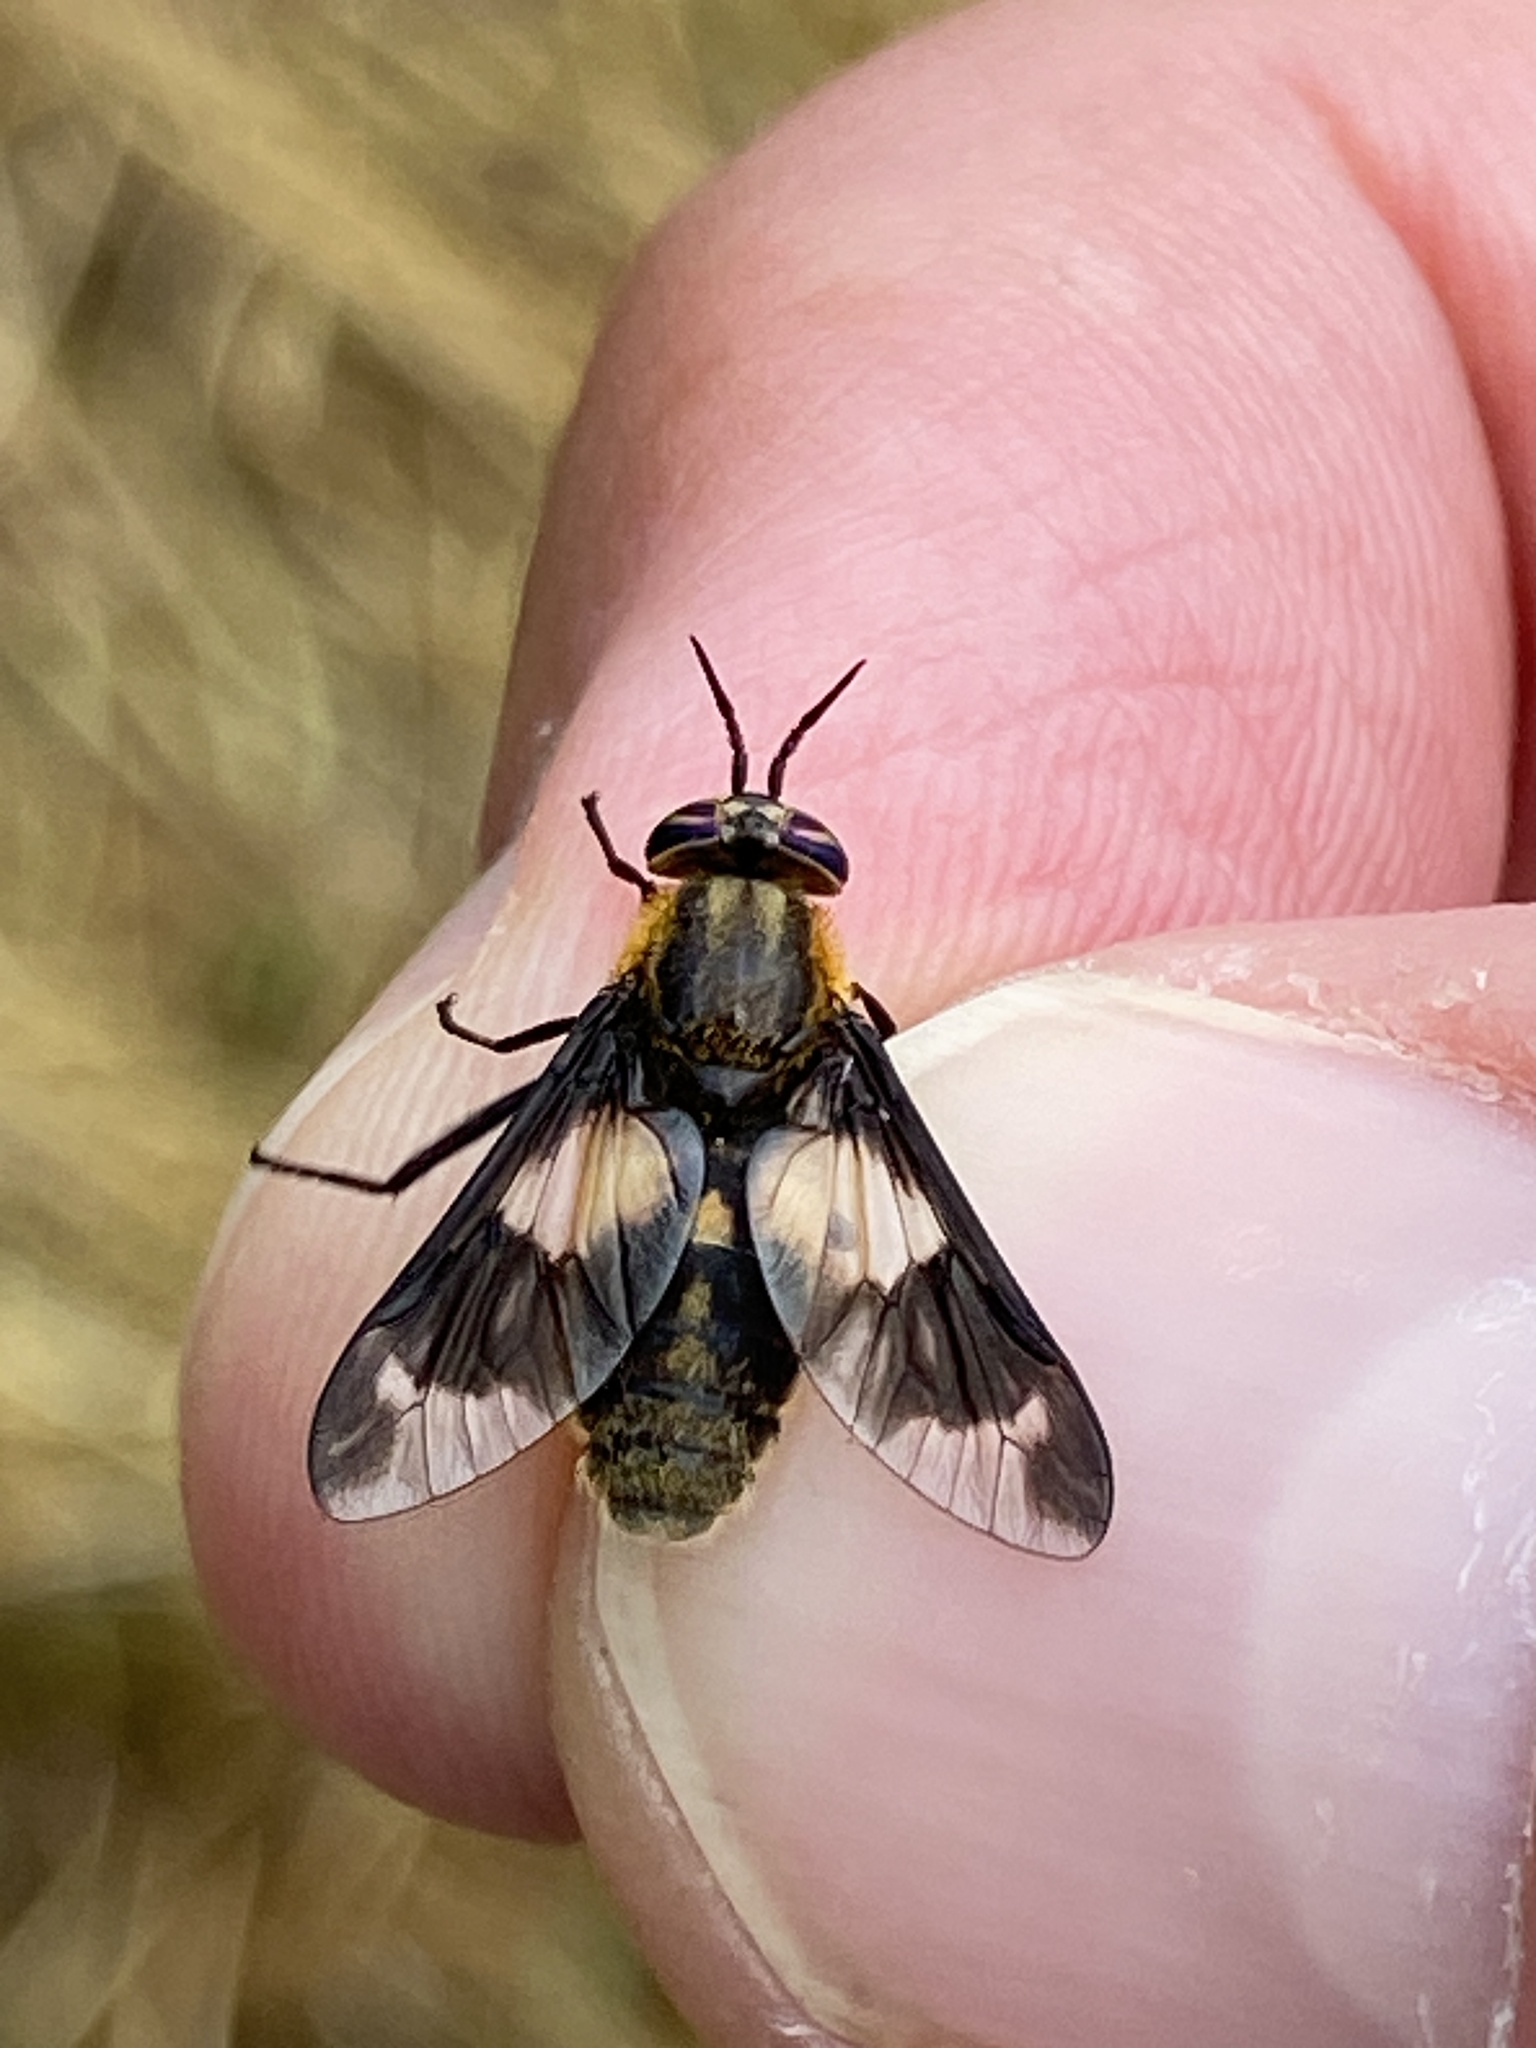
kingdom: Animalia
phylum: Arthropoda
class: Insecta
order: Diptera
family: Tabanidae
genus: Chrysops
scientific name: Chrysops caecutiens
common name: Splayed deerfly
